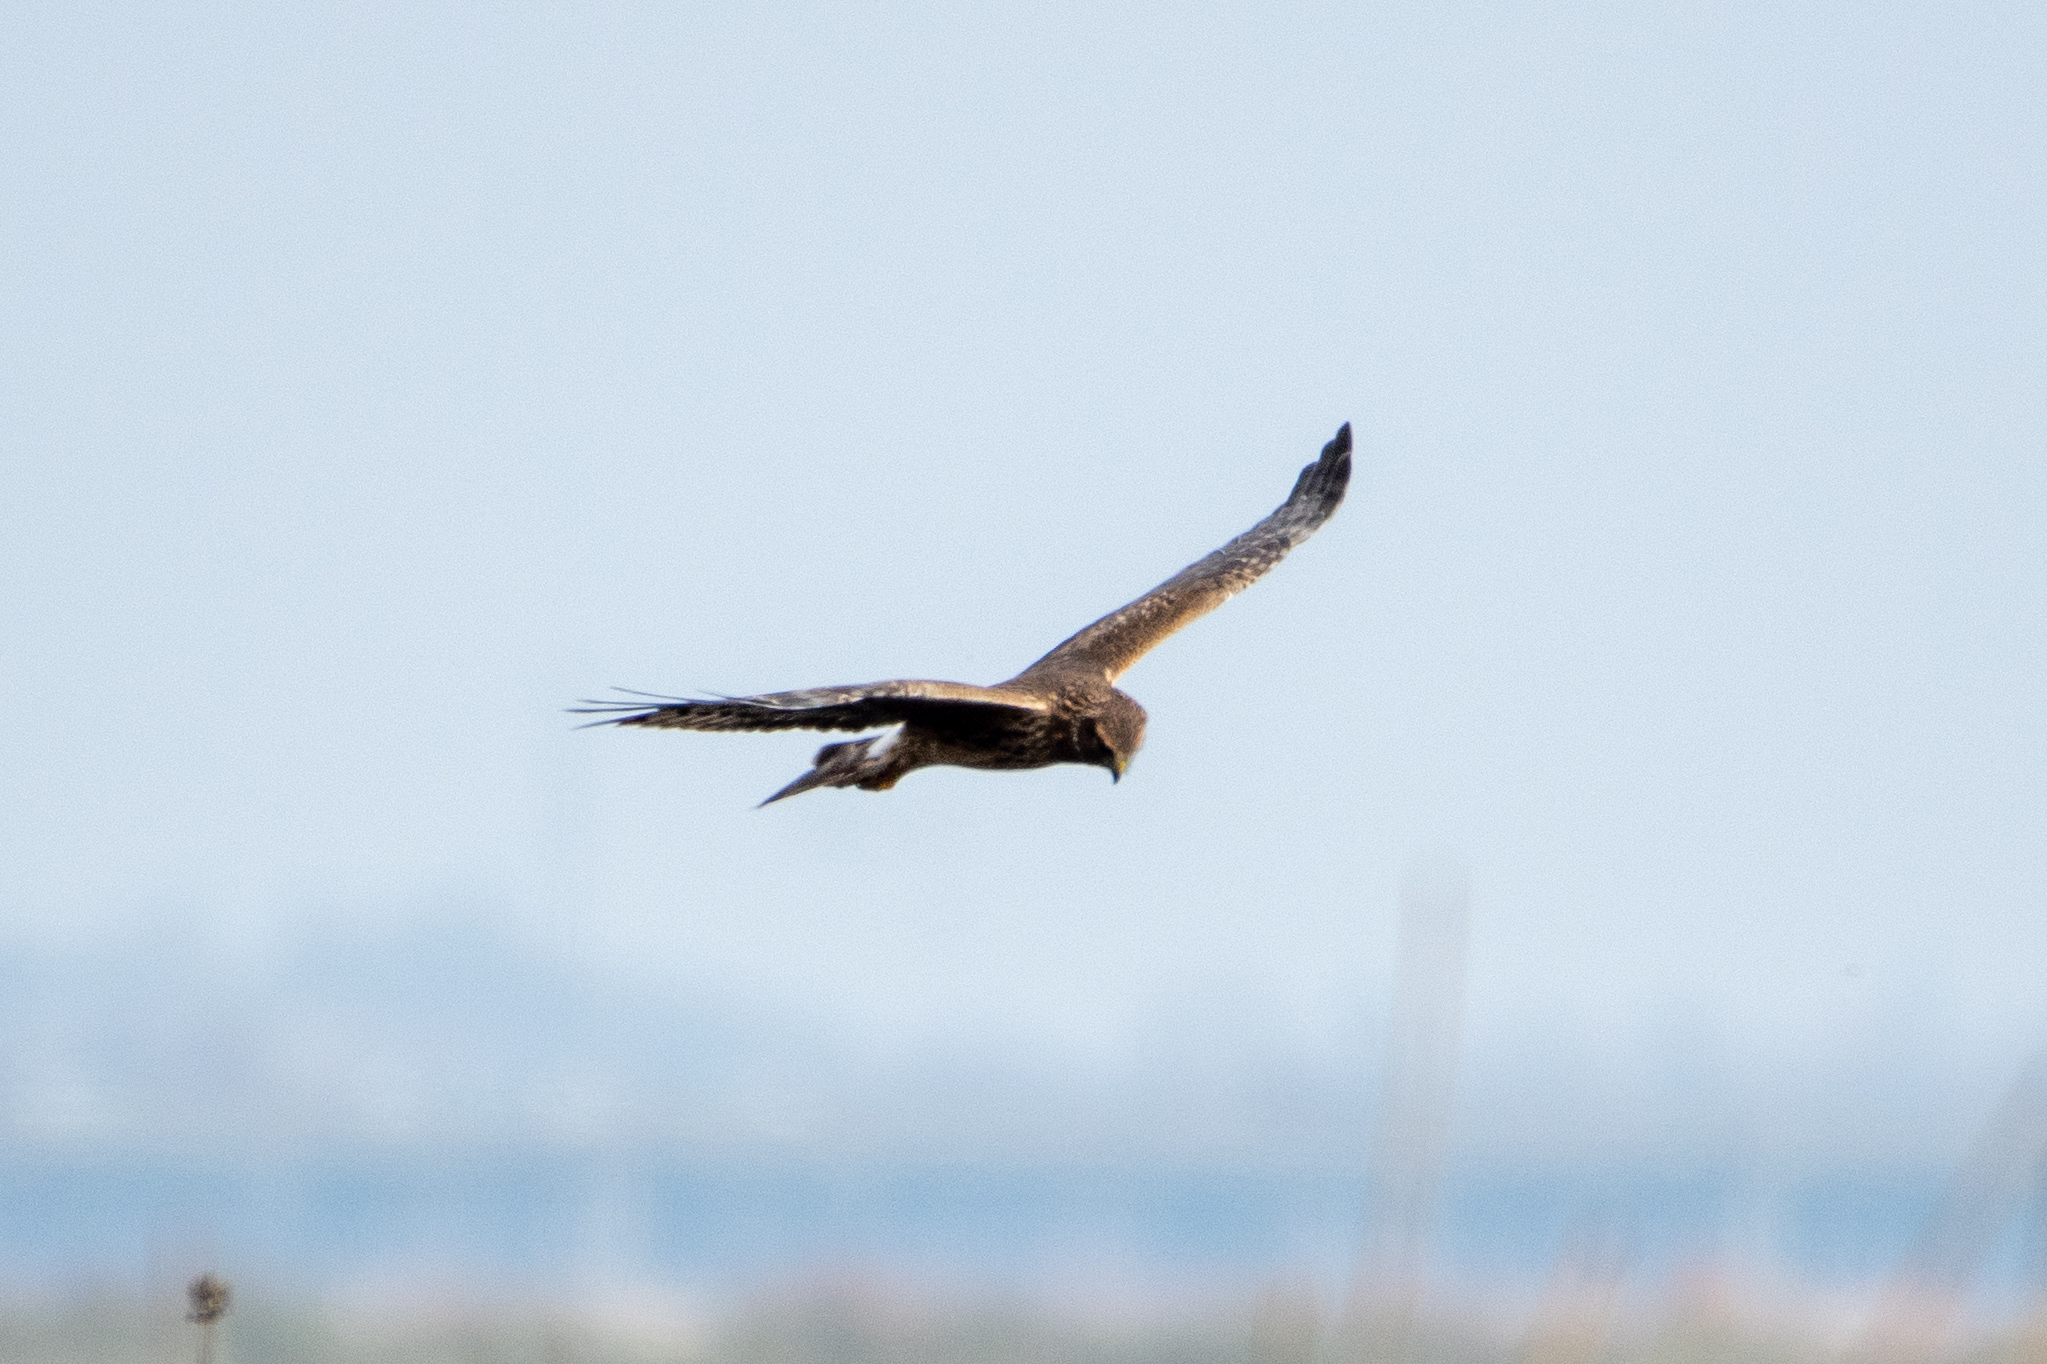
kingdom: Animalia
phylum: Chordata
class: Aves
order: Accipitriformes
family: Accipitridae
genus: Circus
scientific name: Circus cyaneus
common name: Hen harrier
